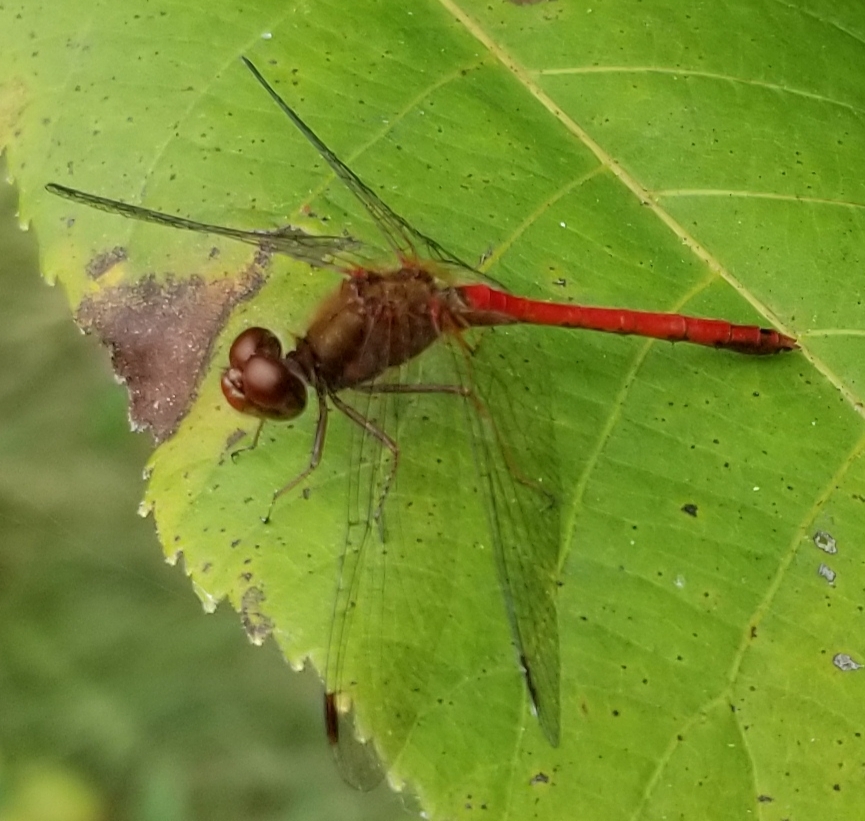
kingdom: Animalia
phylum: Arthropoda
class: Insecta
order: Odonata
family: Libellulidae
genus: Sympetrum
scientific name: Sympetrum vicinum
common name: Autumn meadowhawk
